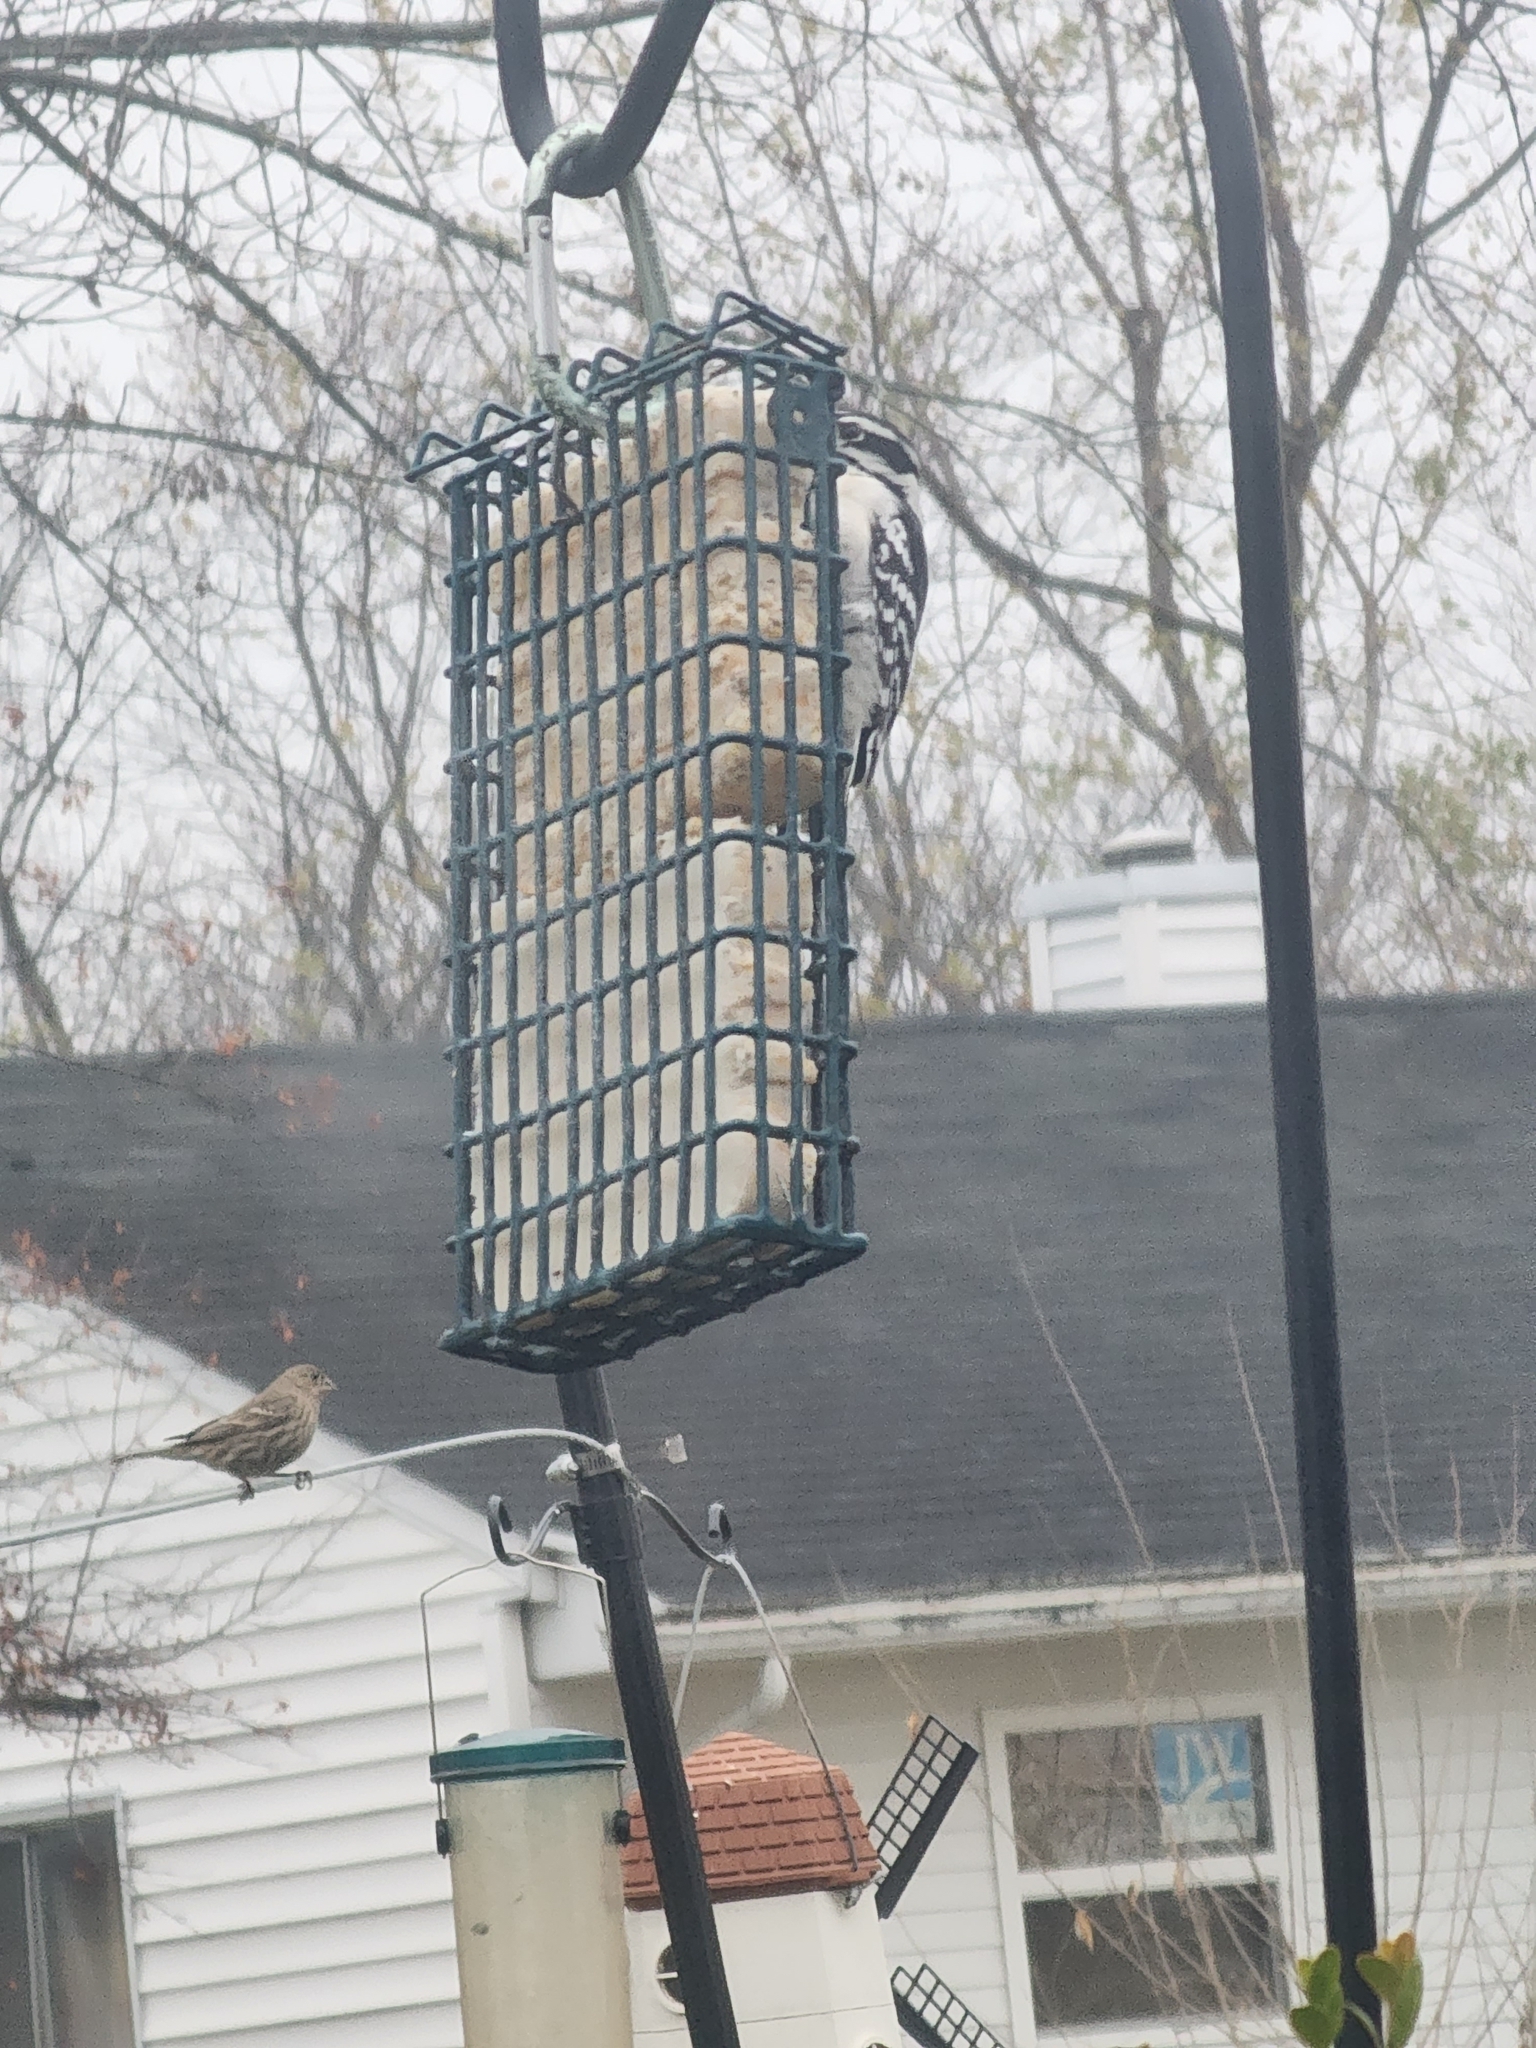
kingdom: Animalia
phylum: Chordata
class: Aves
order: Passeriformes
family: Fringillidae
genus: Haemorhous
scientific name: Haemorhous mexicanus
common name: House finch
